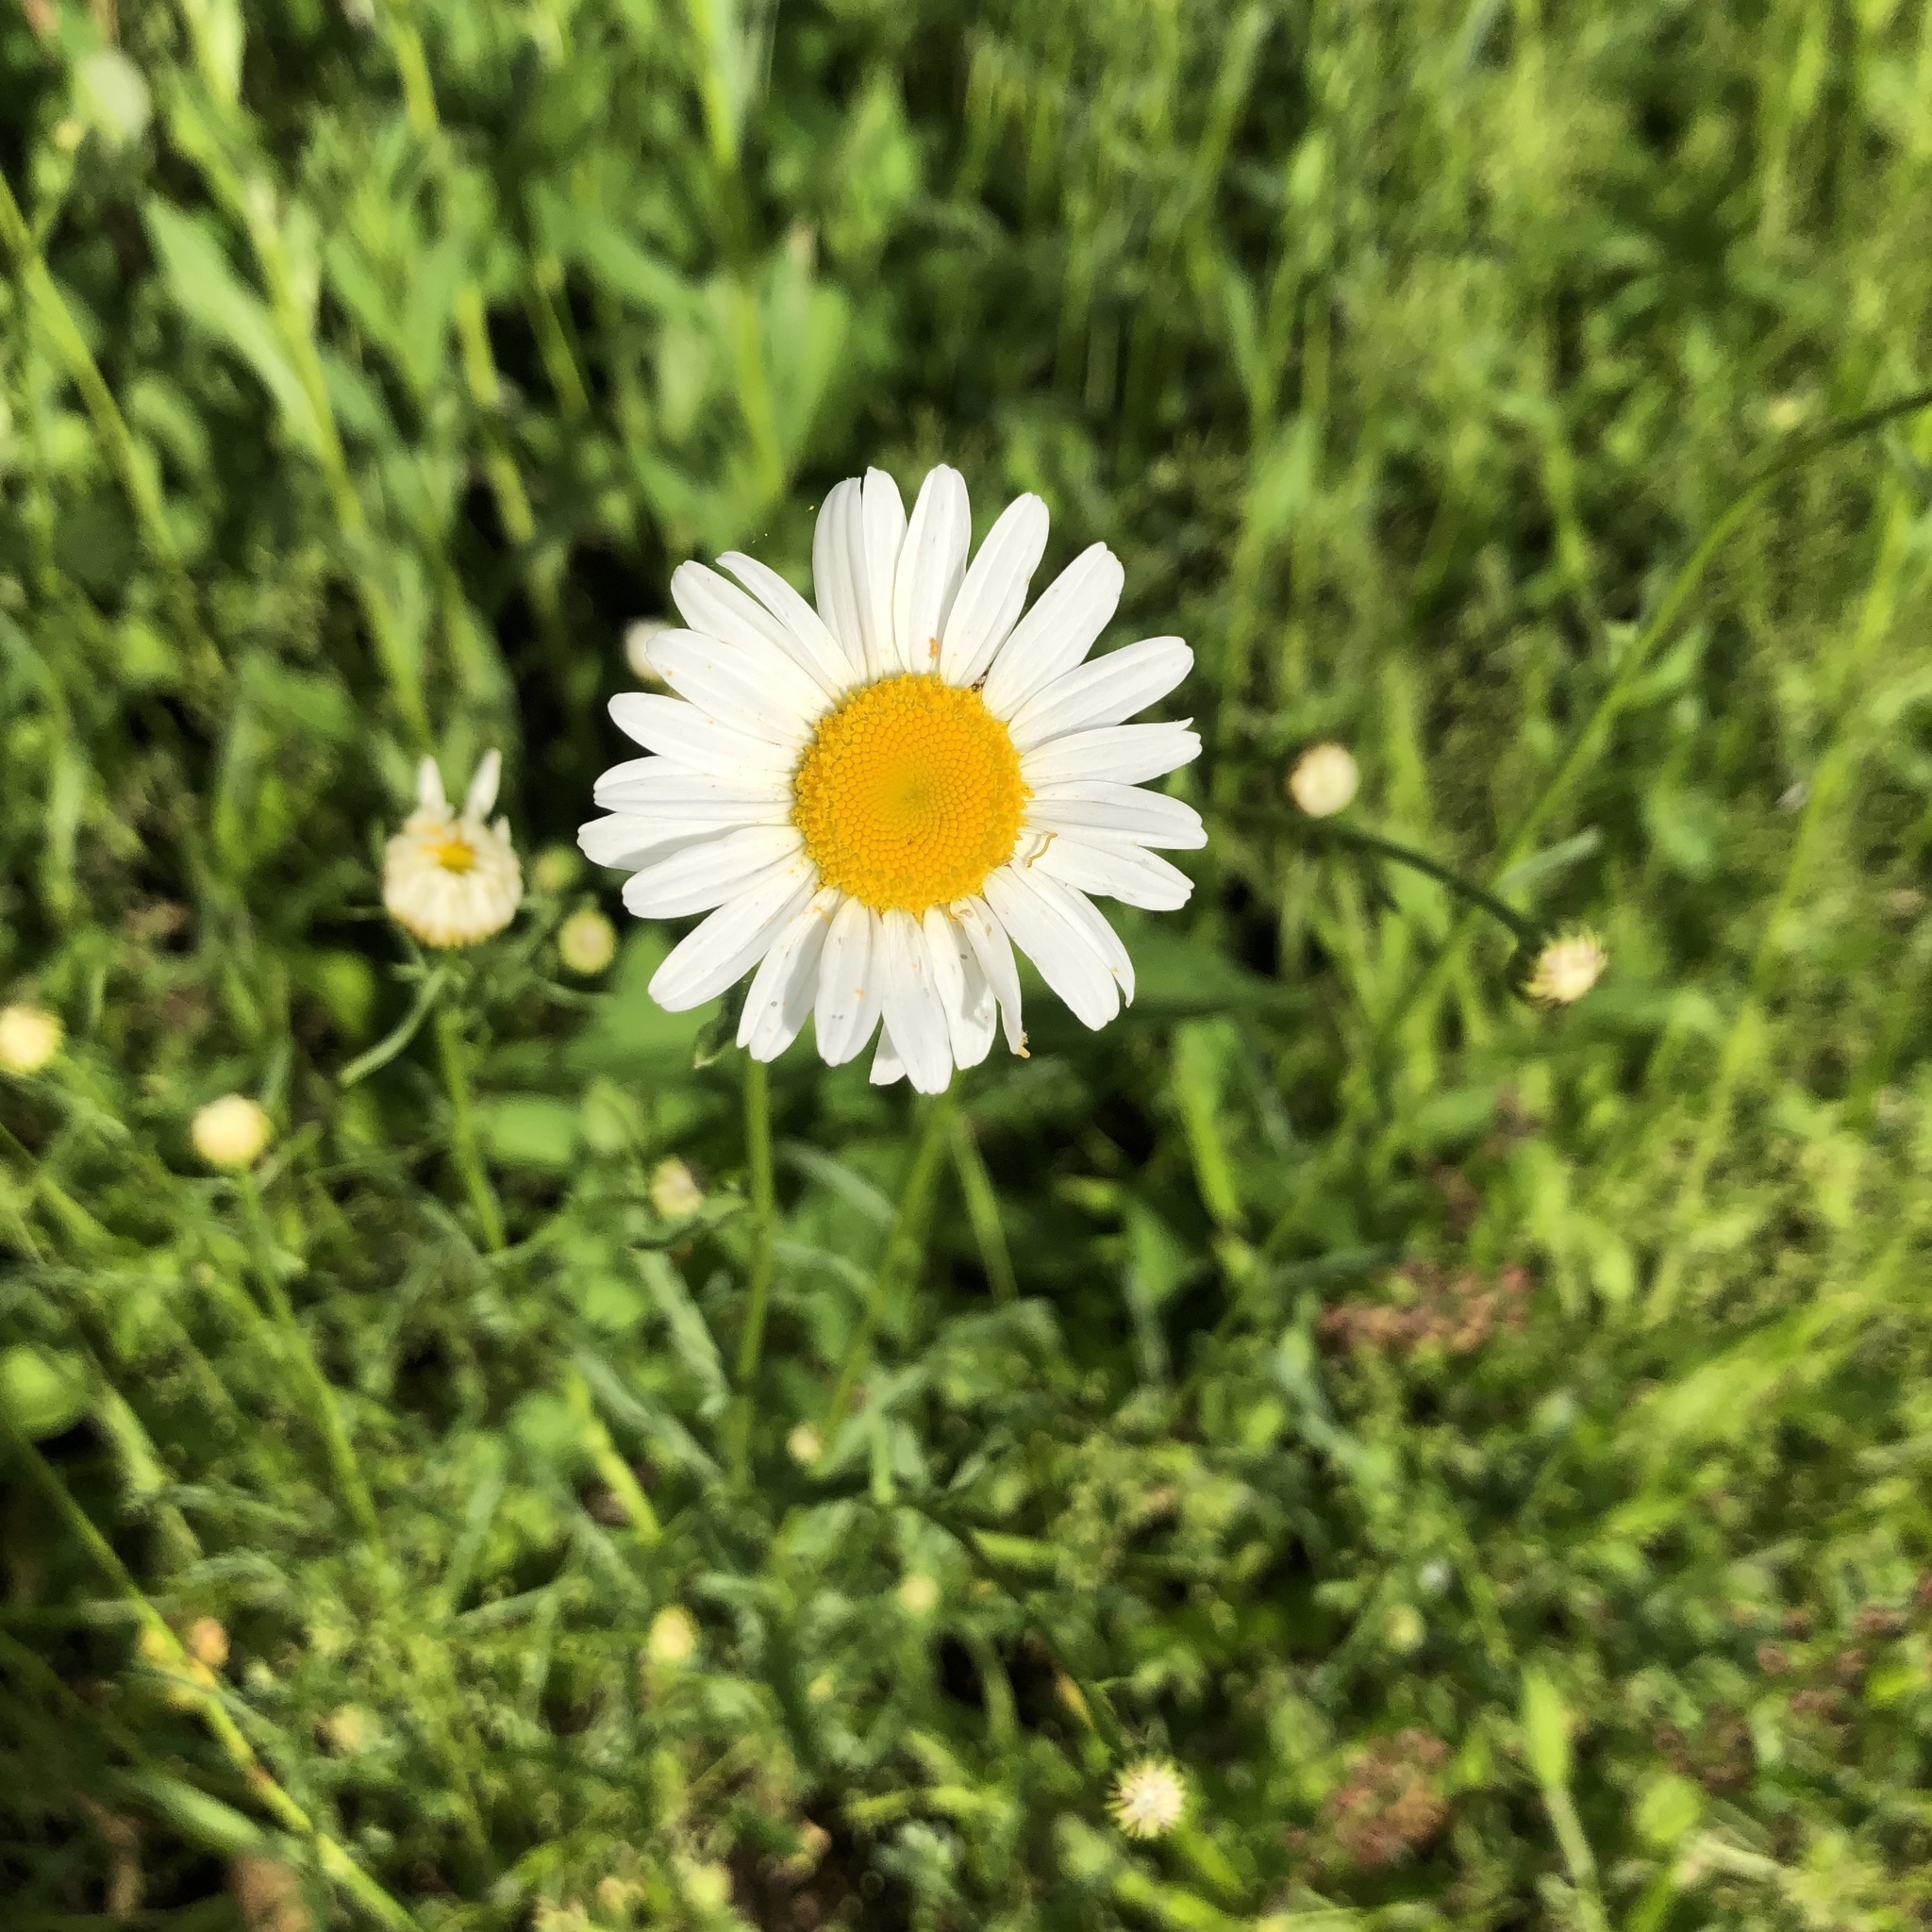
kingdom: Plantae
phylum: Tracheophyta
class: Magnoliopsida
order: Asterales
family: Asteraceae
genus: Leucanthemum
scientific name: Leucanthemum vulgare
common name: Oxeye daisy
